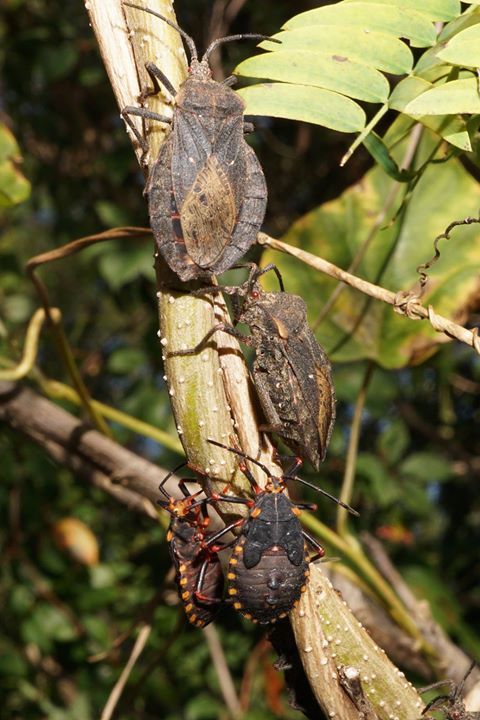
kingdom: Animalia
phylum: Arthropoda
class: Insecta
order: Hemiptera
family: Coreidae
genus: Spartocera
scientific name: Spartocera batatas
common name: Giant sweetpotato bug
